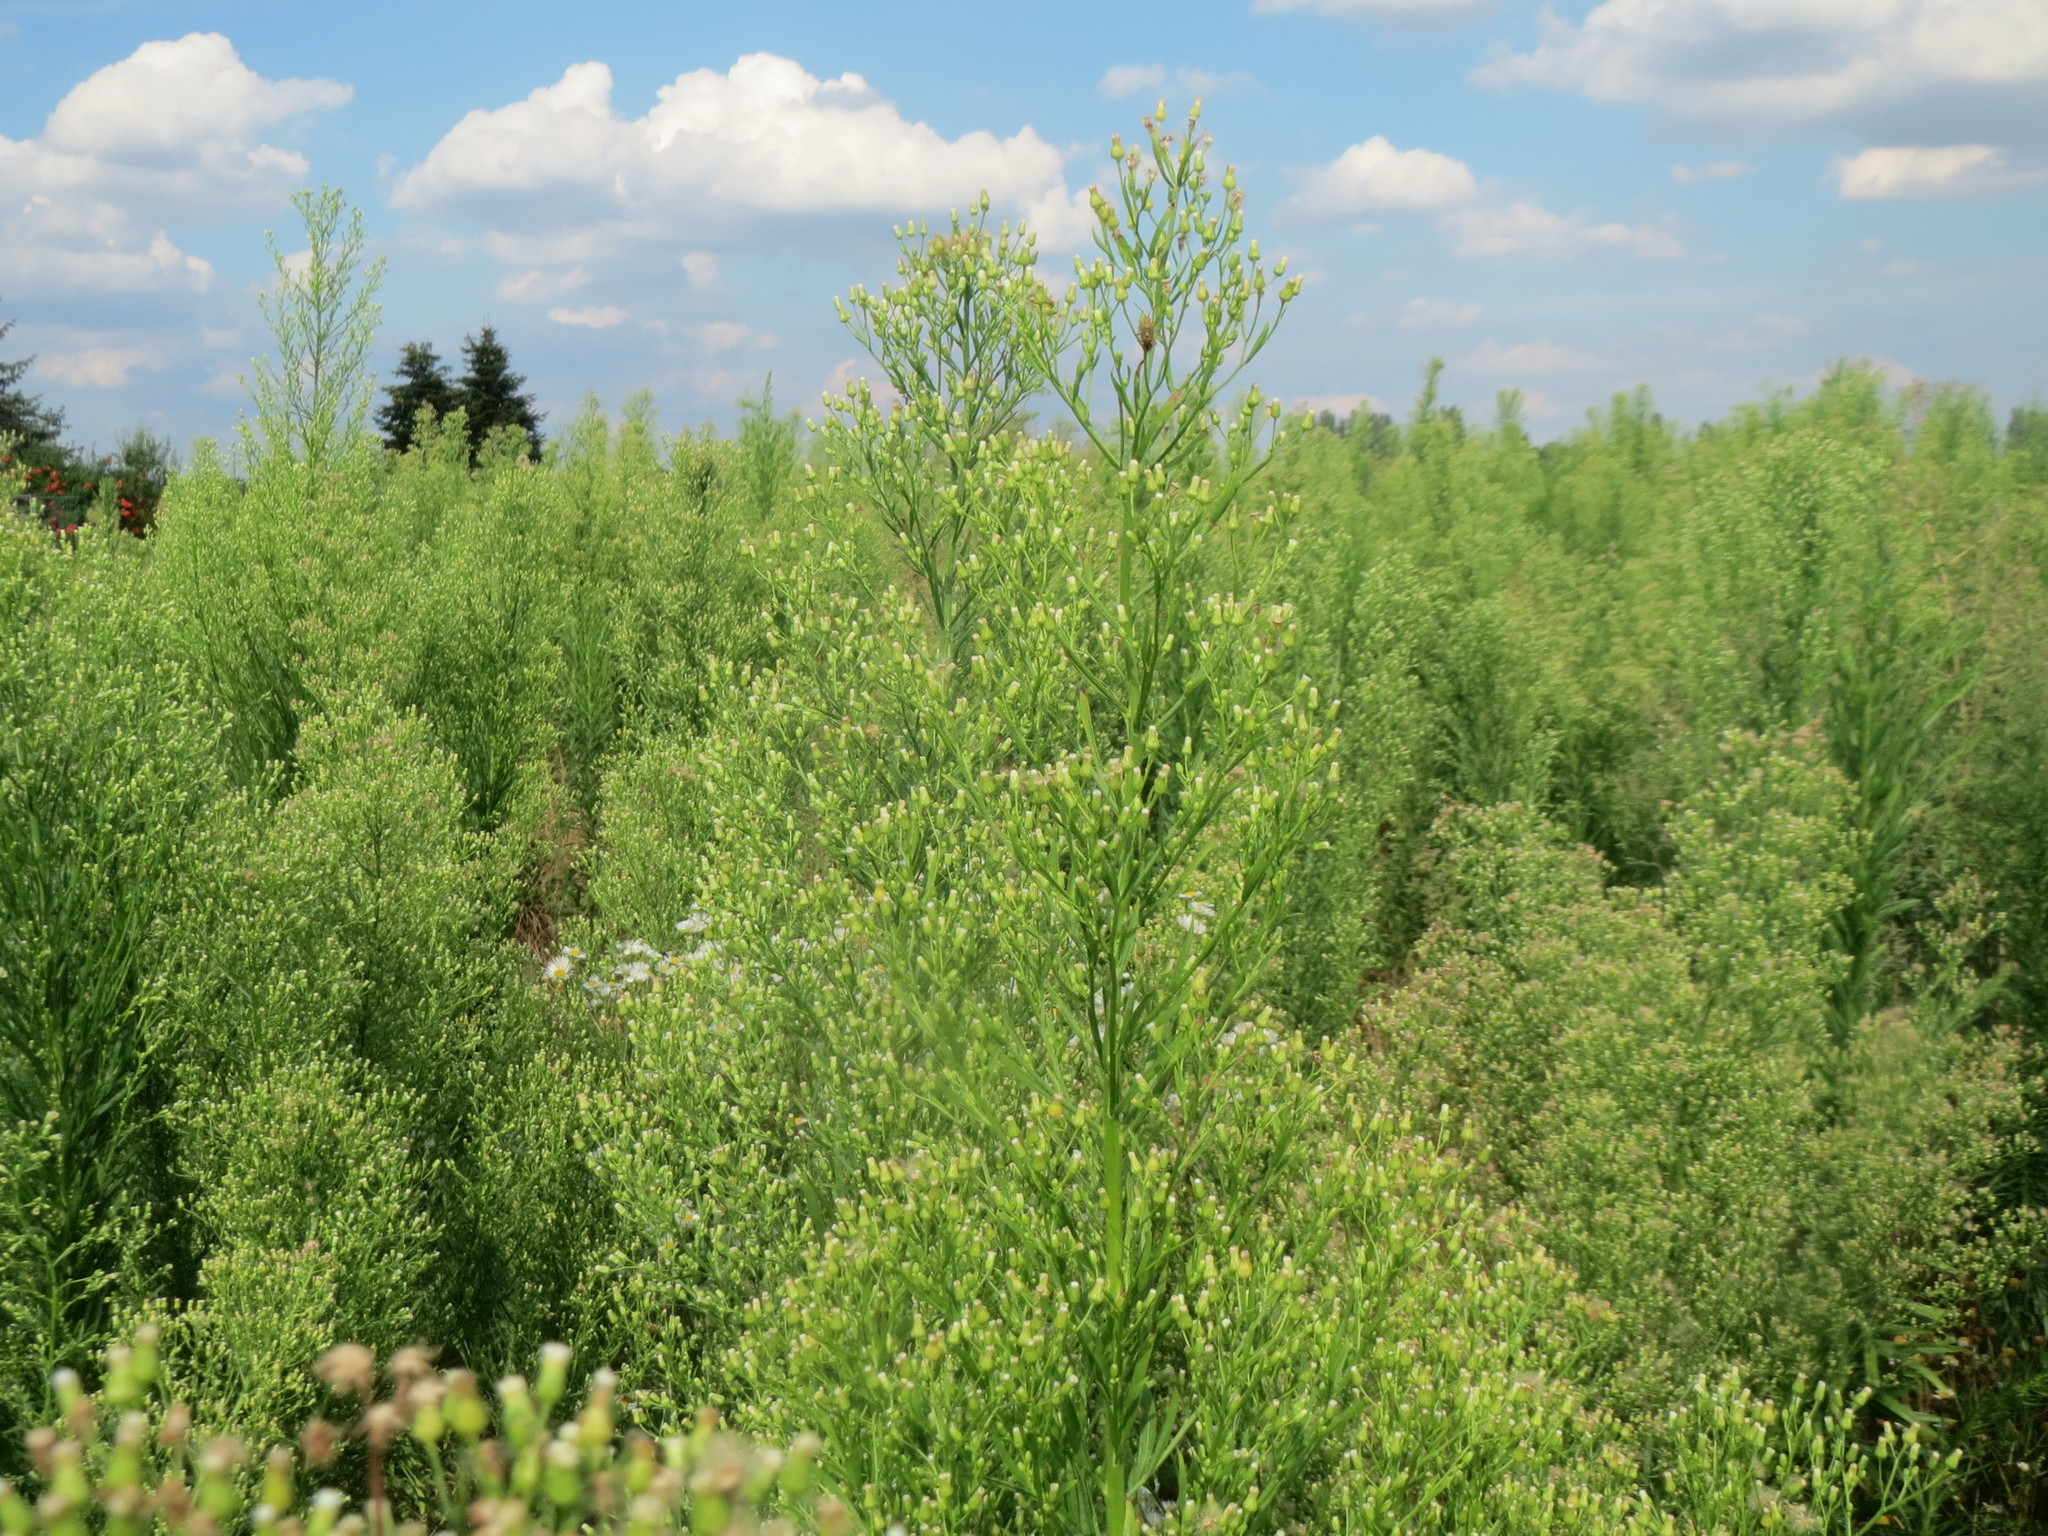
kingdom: Plantae
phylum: Tracheophyta
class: Magnoliopsida
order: Asterales
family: Asteraceae
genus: Erigeron
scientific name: Erigeron canadensis
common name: Canadian fleabane
